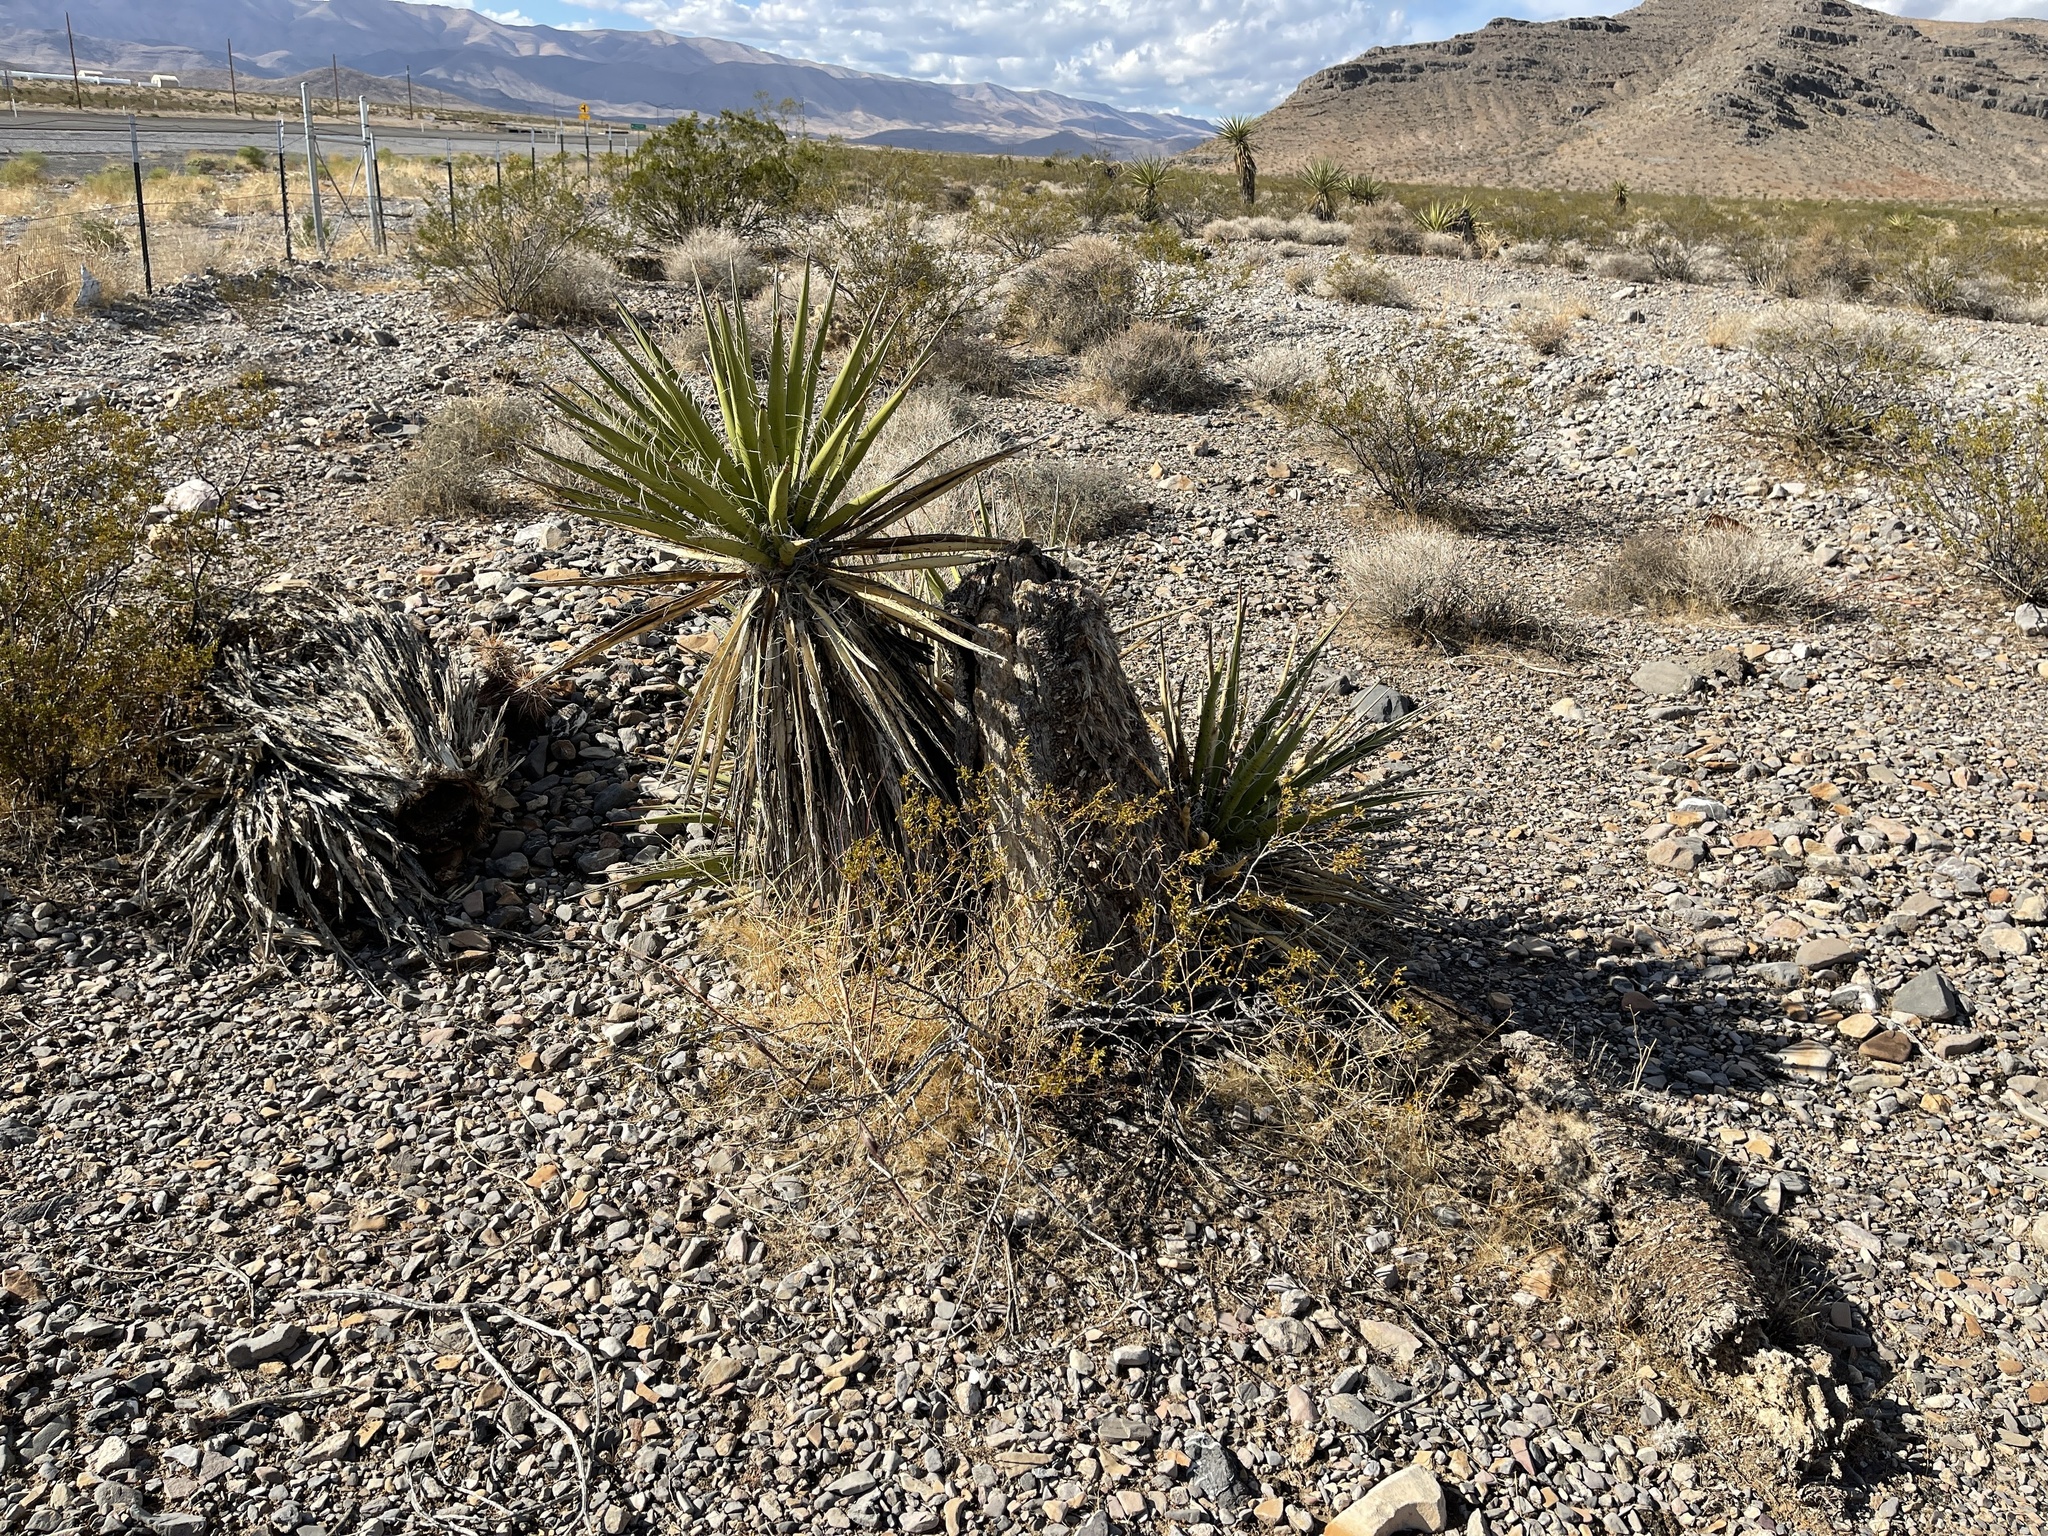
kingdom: Plantae
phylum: Tracheophyta
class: Liliopsida
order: Asparagales
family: Asparagaceae
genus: Yucca
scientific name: Yucca schidigera
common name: Mojave yucca
